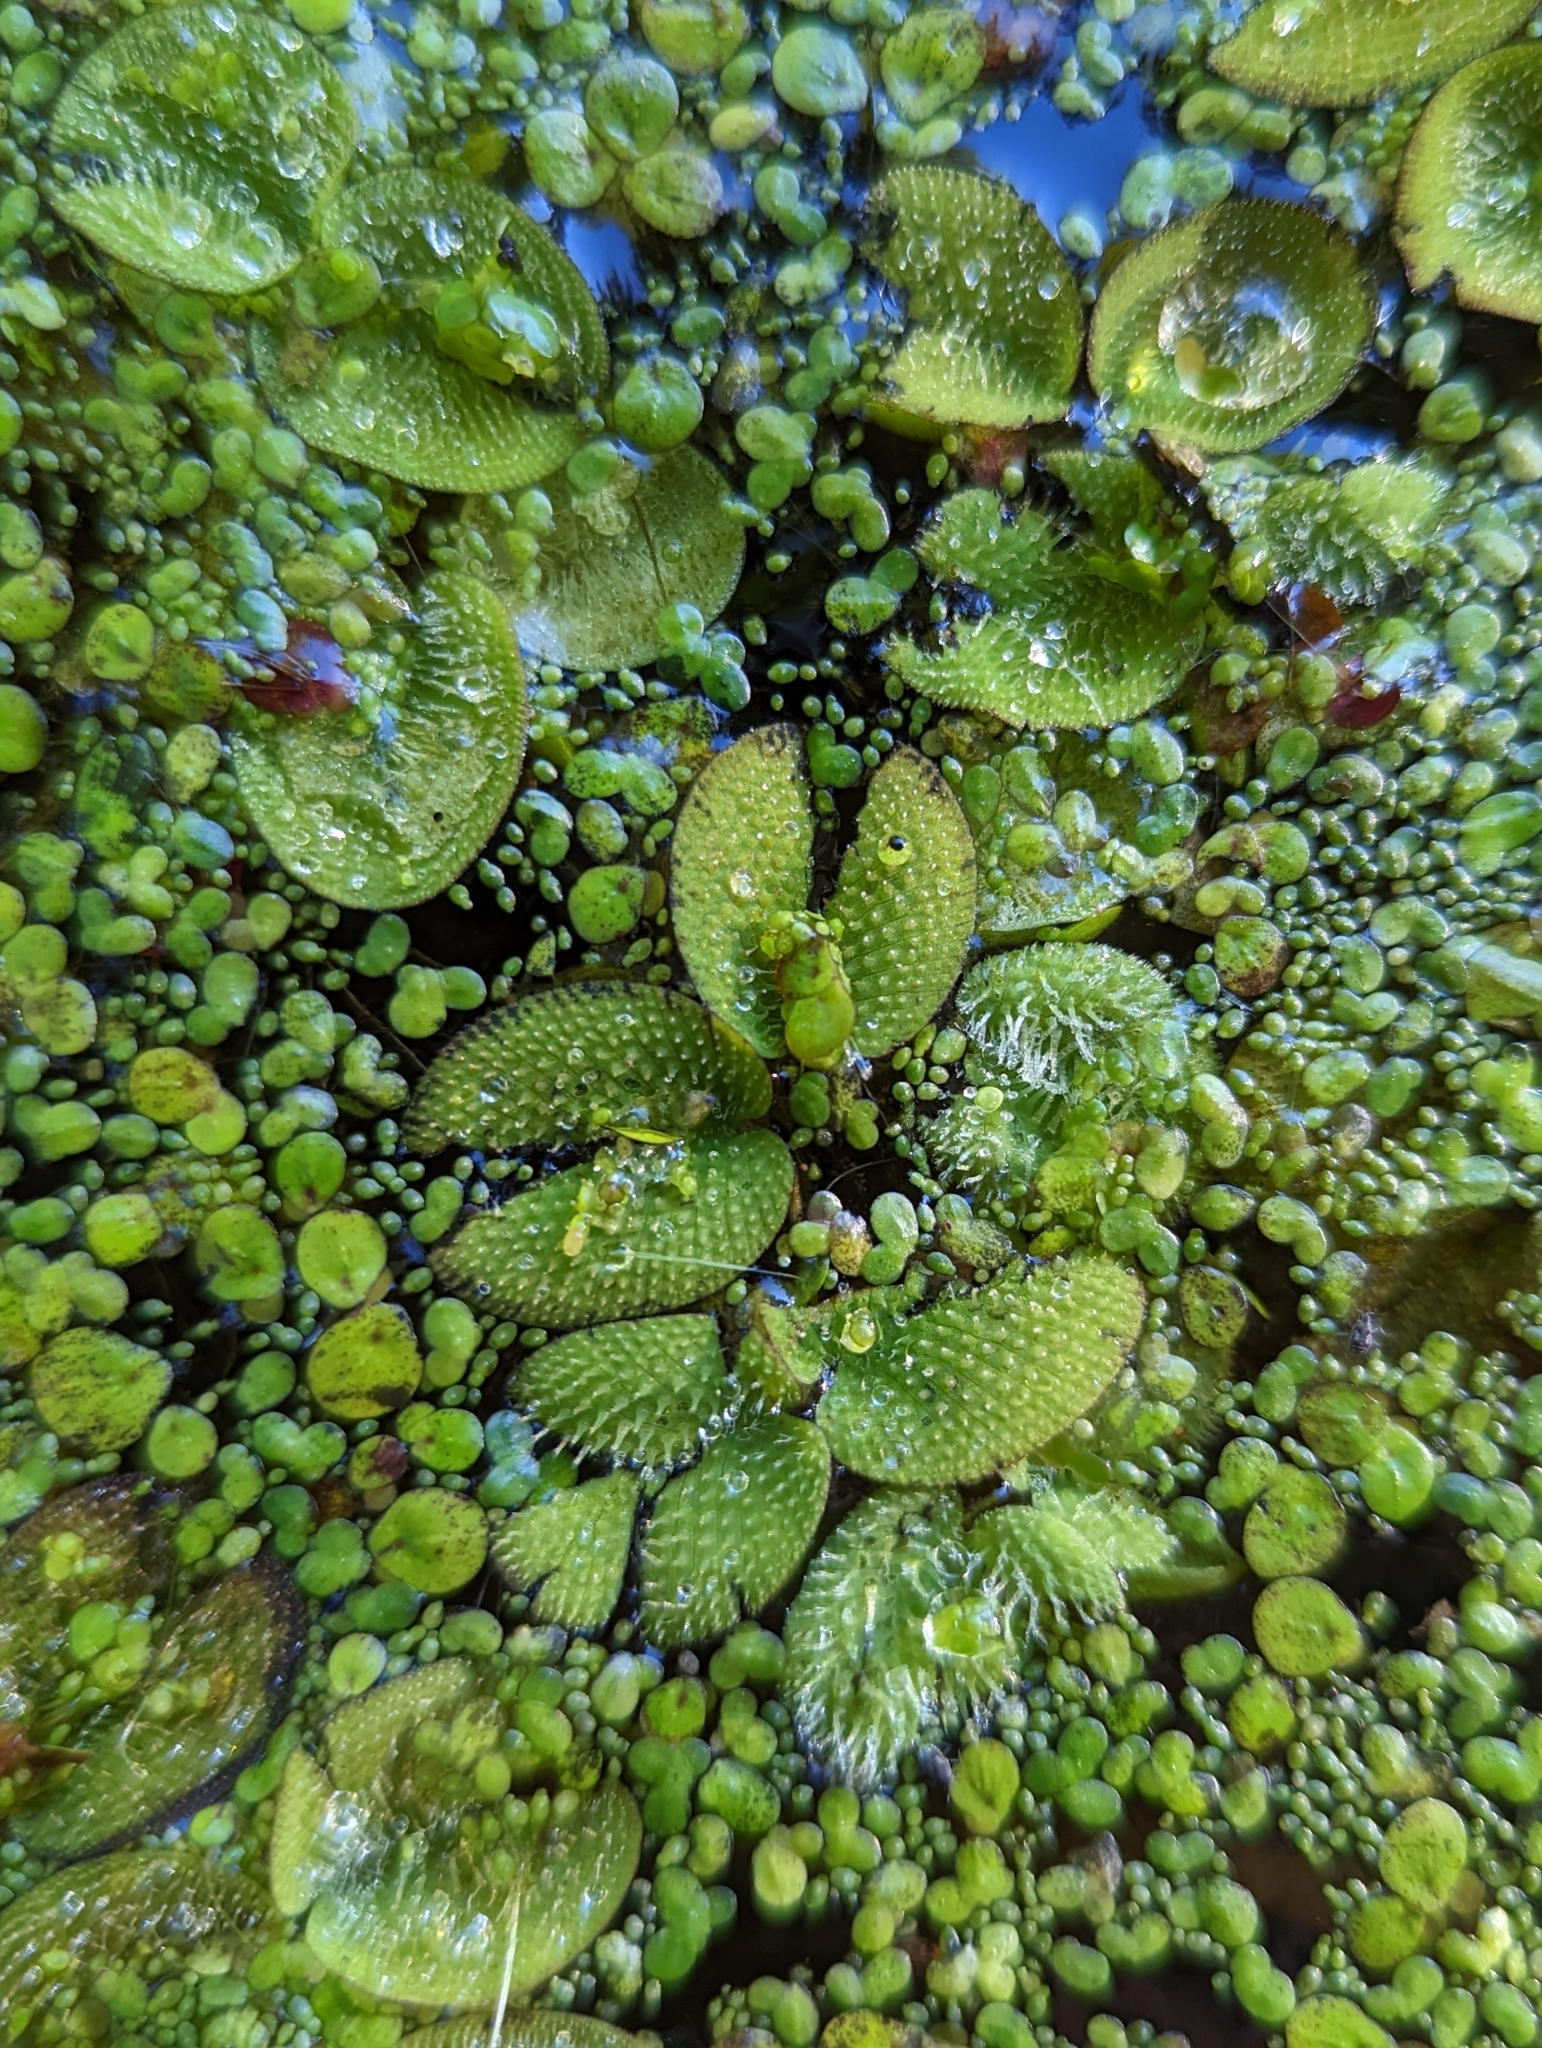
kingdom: Plantae
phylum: Tracheophyta
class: Polypodiopsida
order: Salviniales
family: Salviniaceae
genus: Salvinia
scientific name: Salvinia minima
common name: Water spangles
